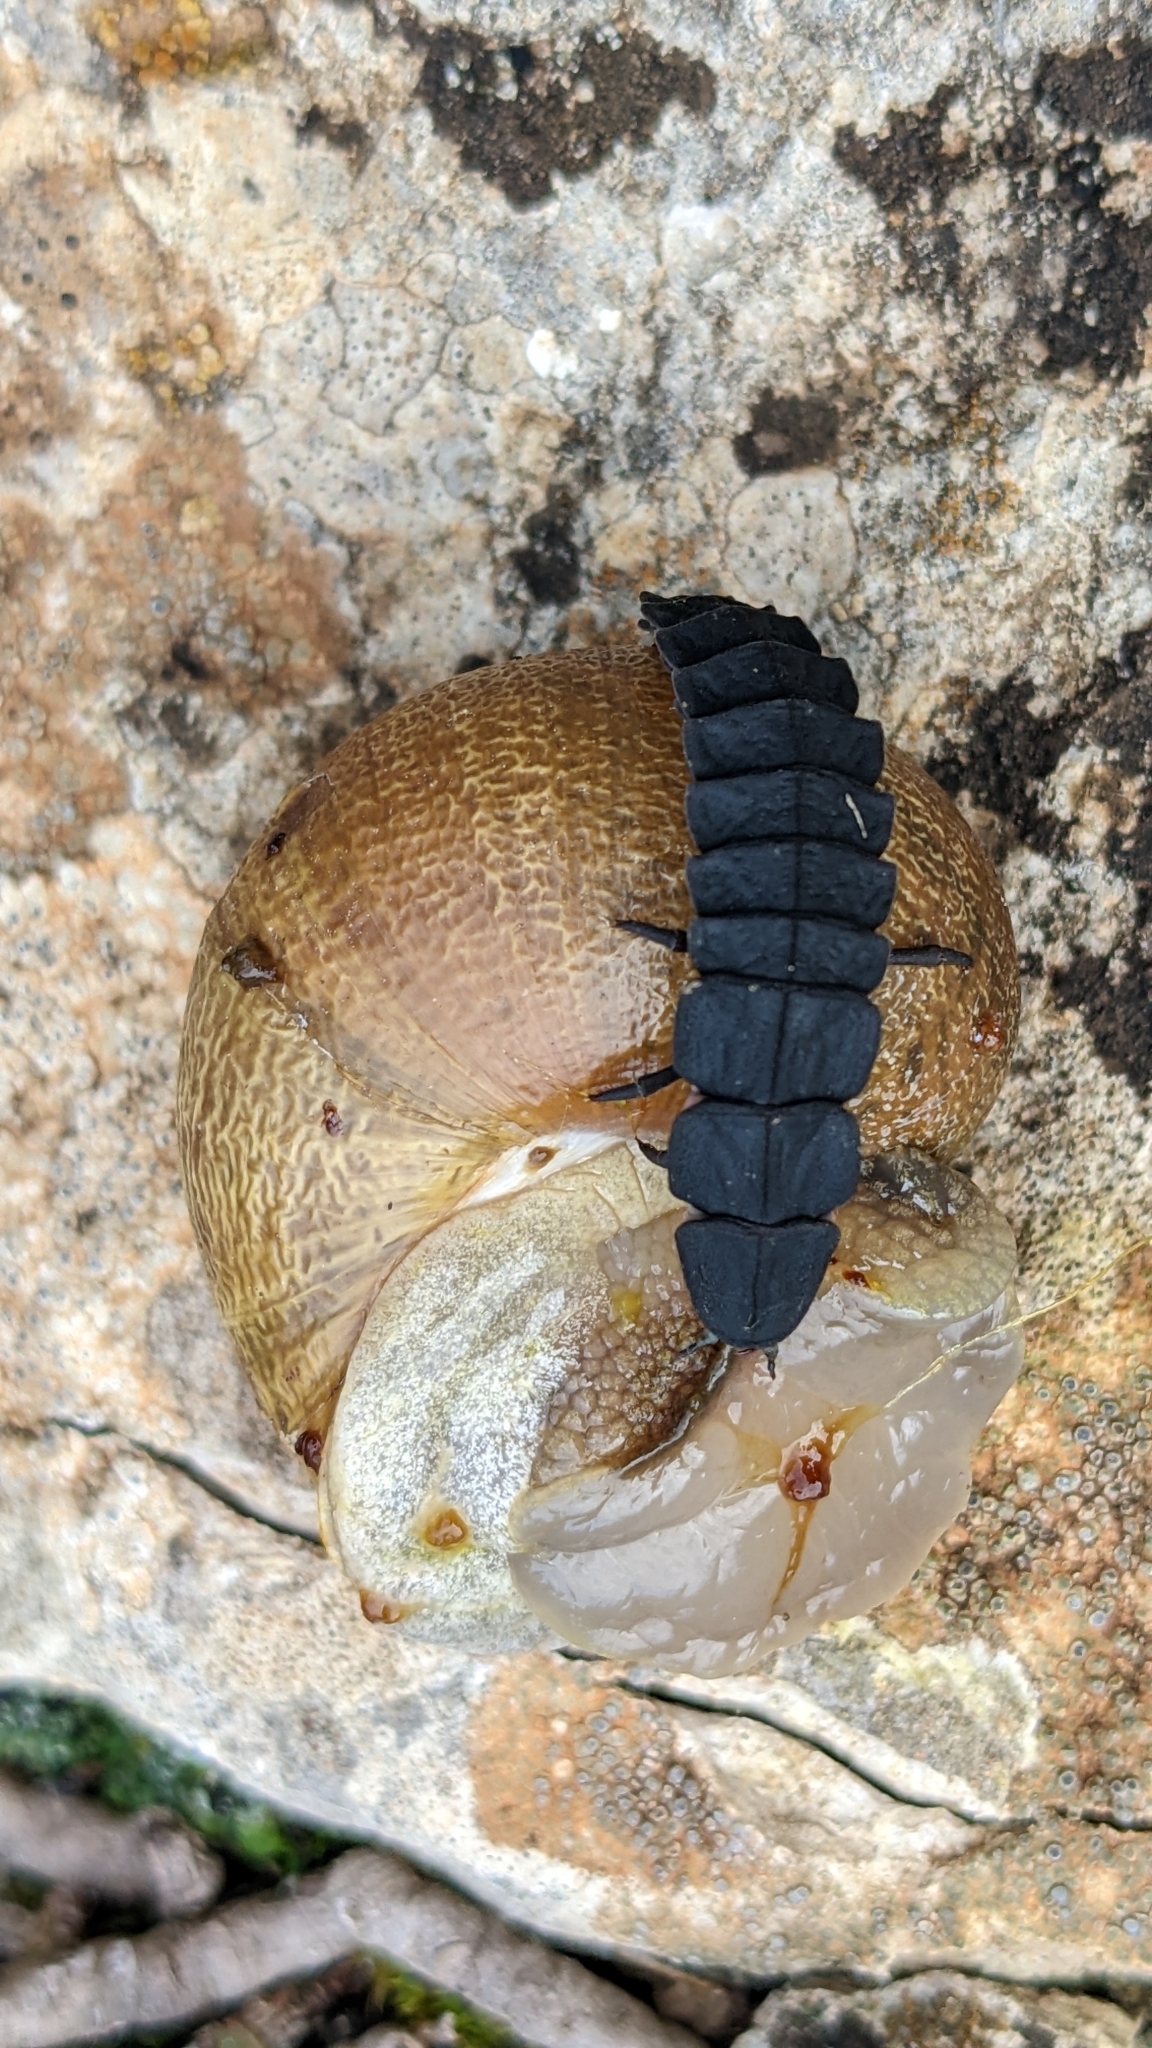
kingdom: Animalia
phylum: Arthropoda
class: Insecta
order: Coleoptera
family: Lampyridae
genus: Nyctophila
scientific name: Nyctophila reichii
